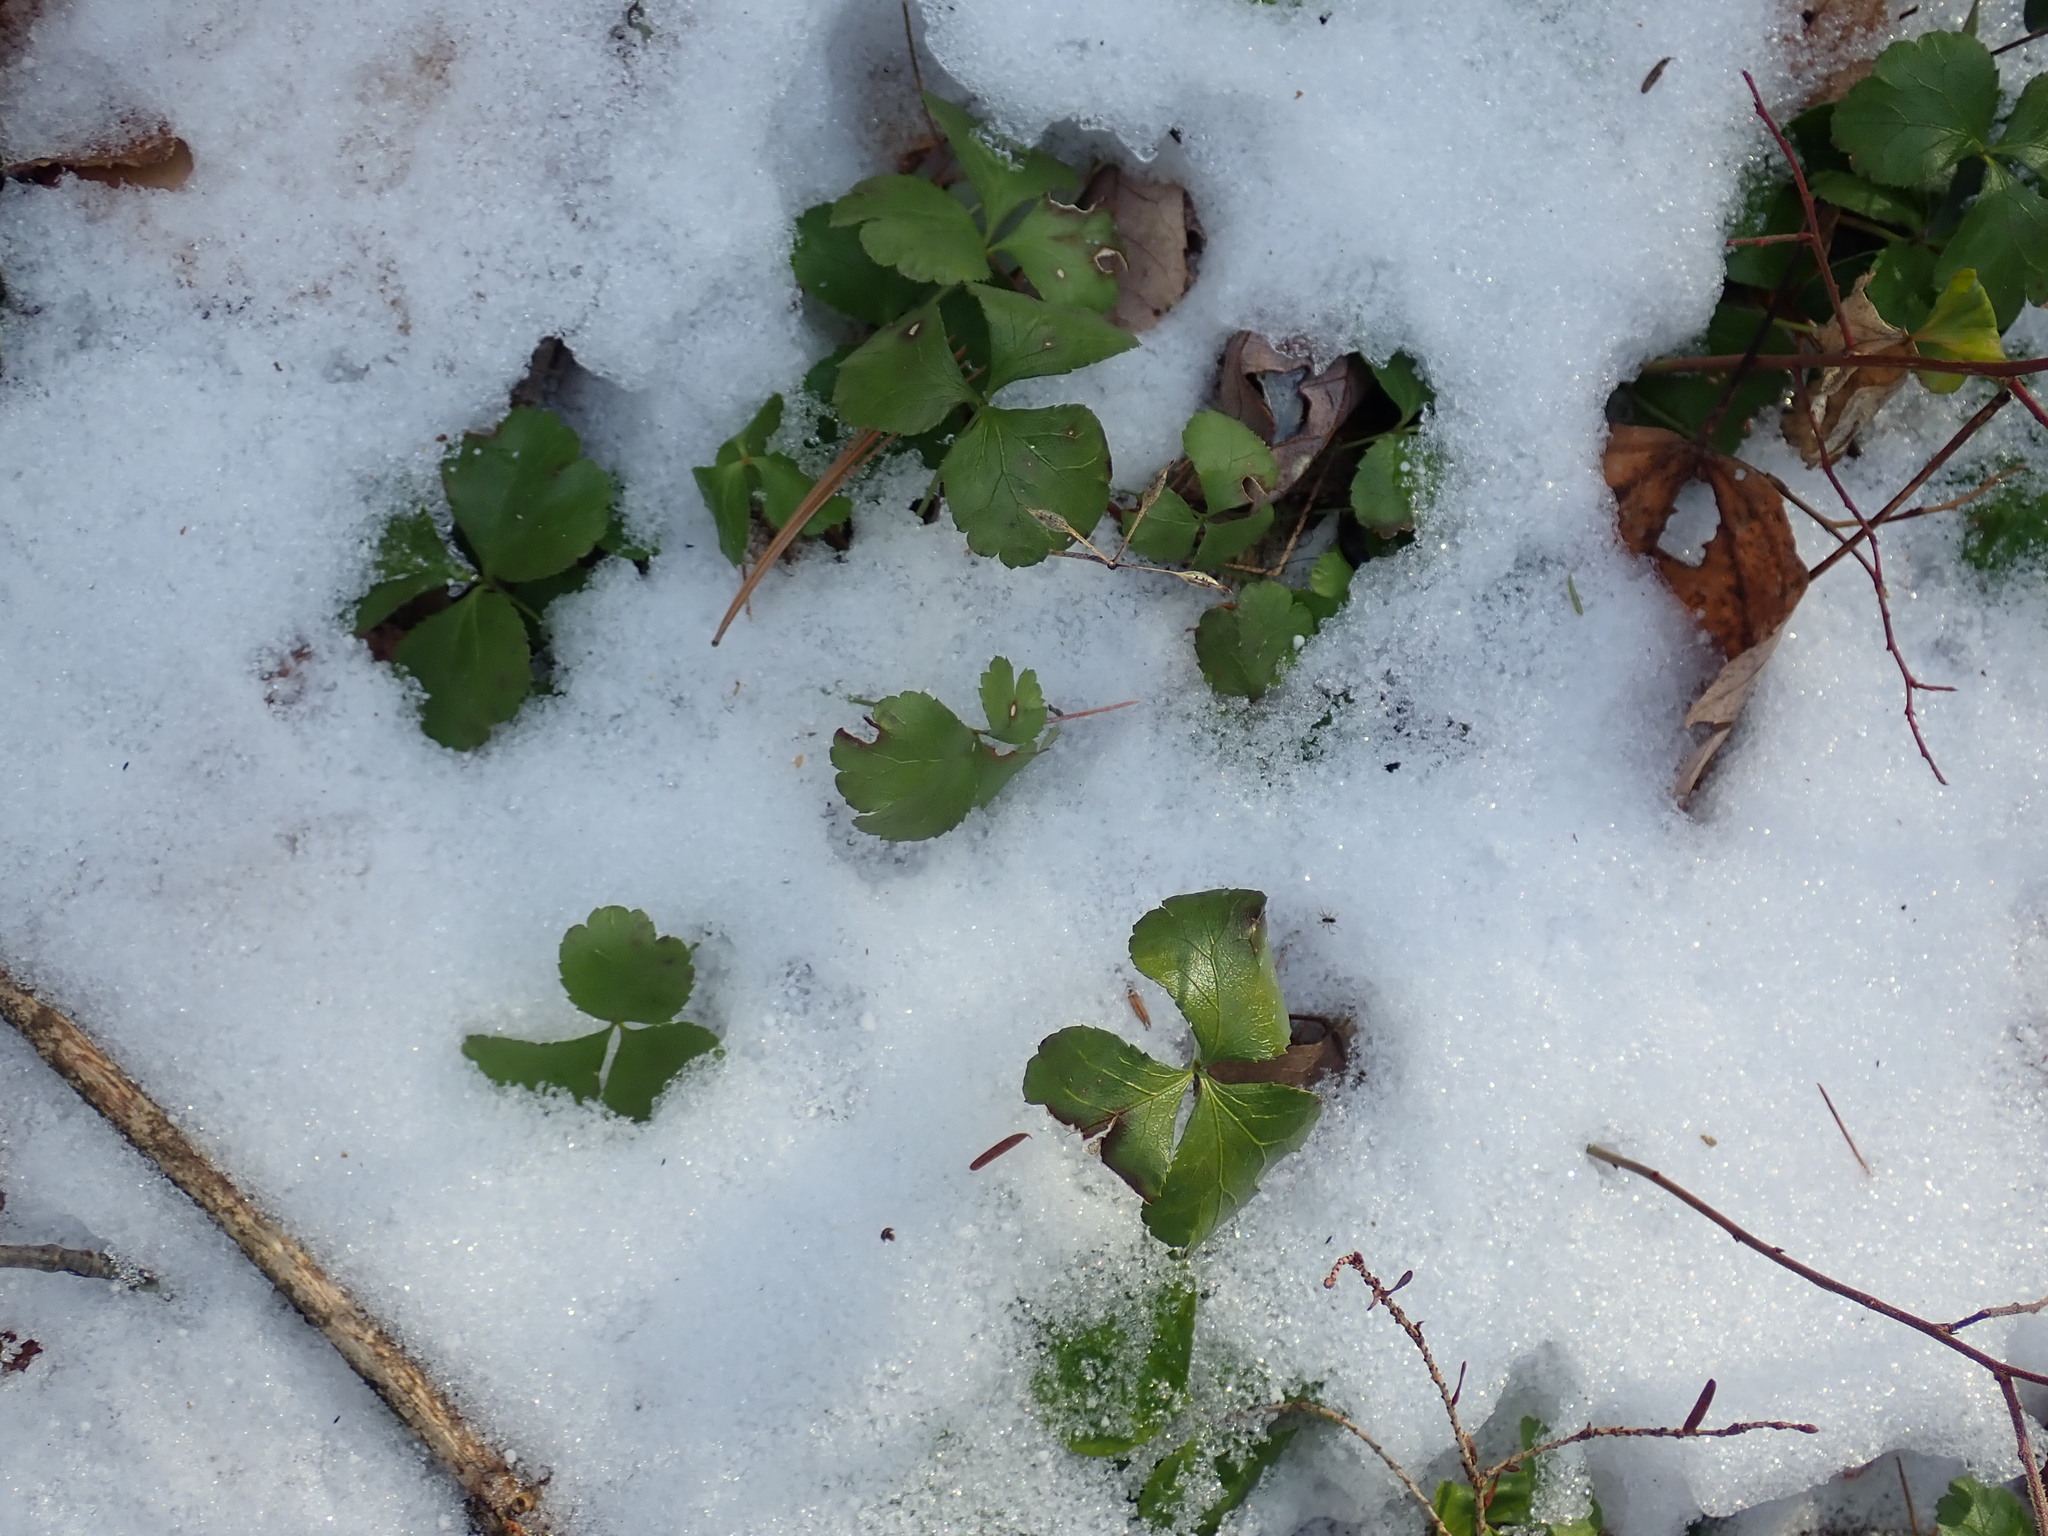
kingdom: Plantae
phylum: Tracheophyta
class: Magnoliopsida
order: Ranunculales
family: Ranunculaceae
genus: Coptis
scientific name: Coptis trifolia
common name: Canker-root
